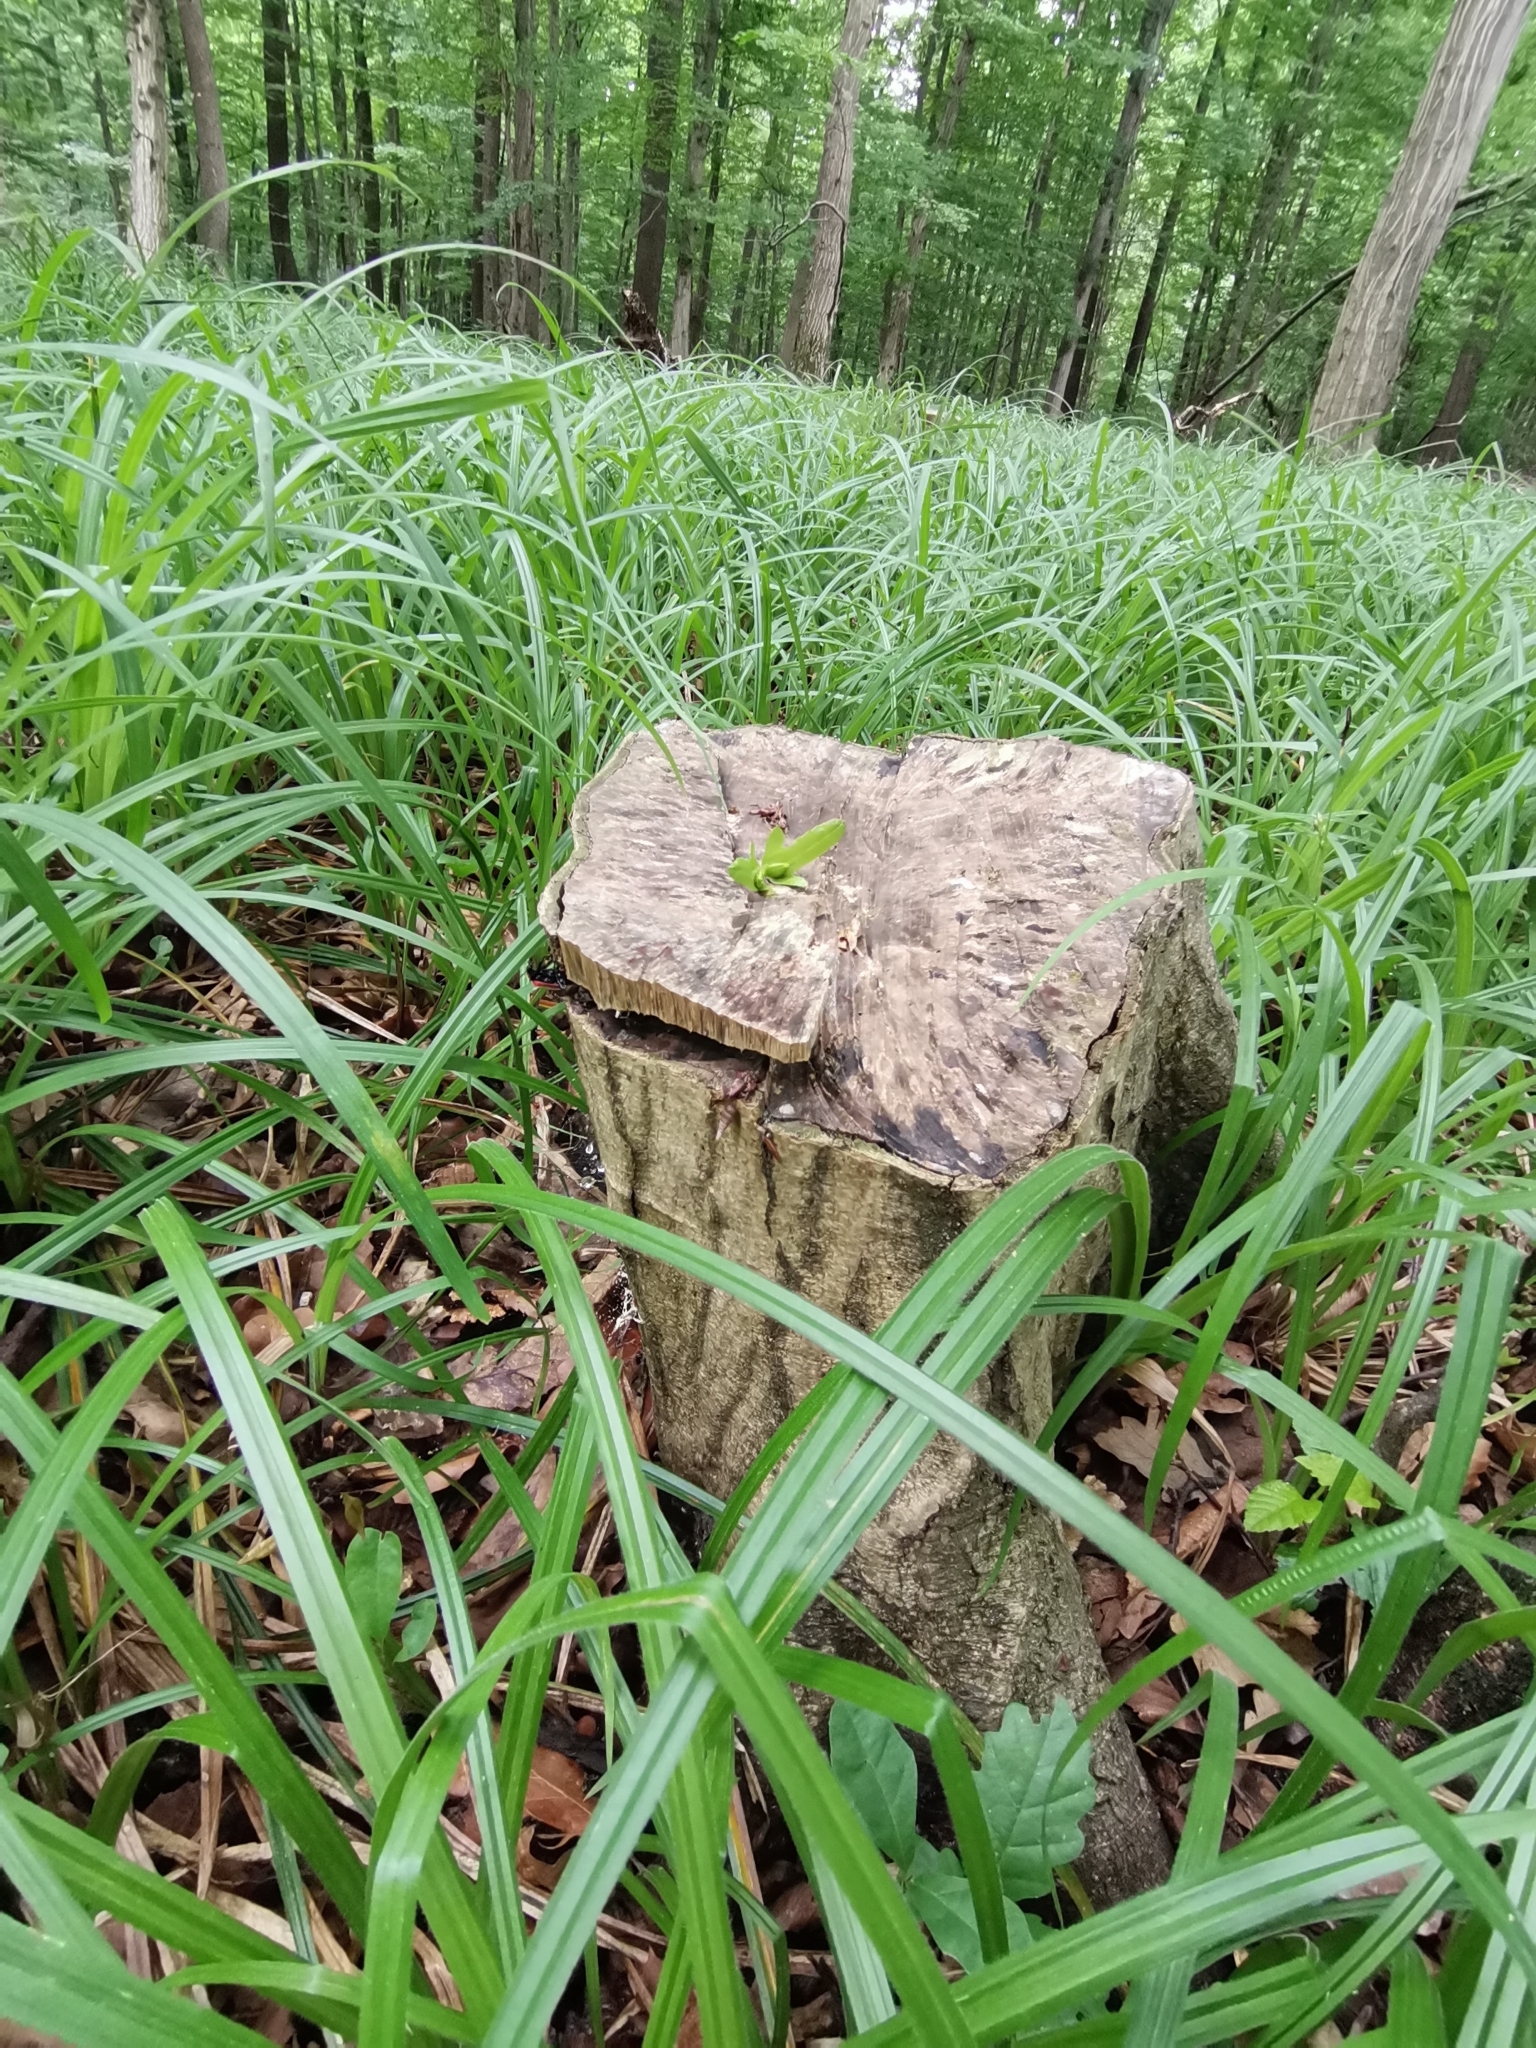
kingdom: Animalia
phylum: Arthropoda
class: Insecta
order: Coleoptera
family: Pyrochroidae
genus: Pyrochroa
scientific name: Pyrochroa coccinea
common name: Black-headed cardinal beetle
